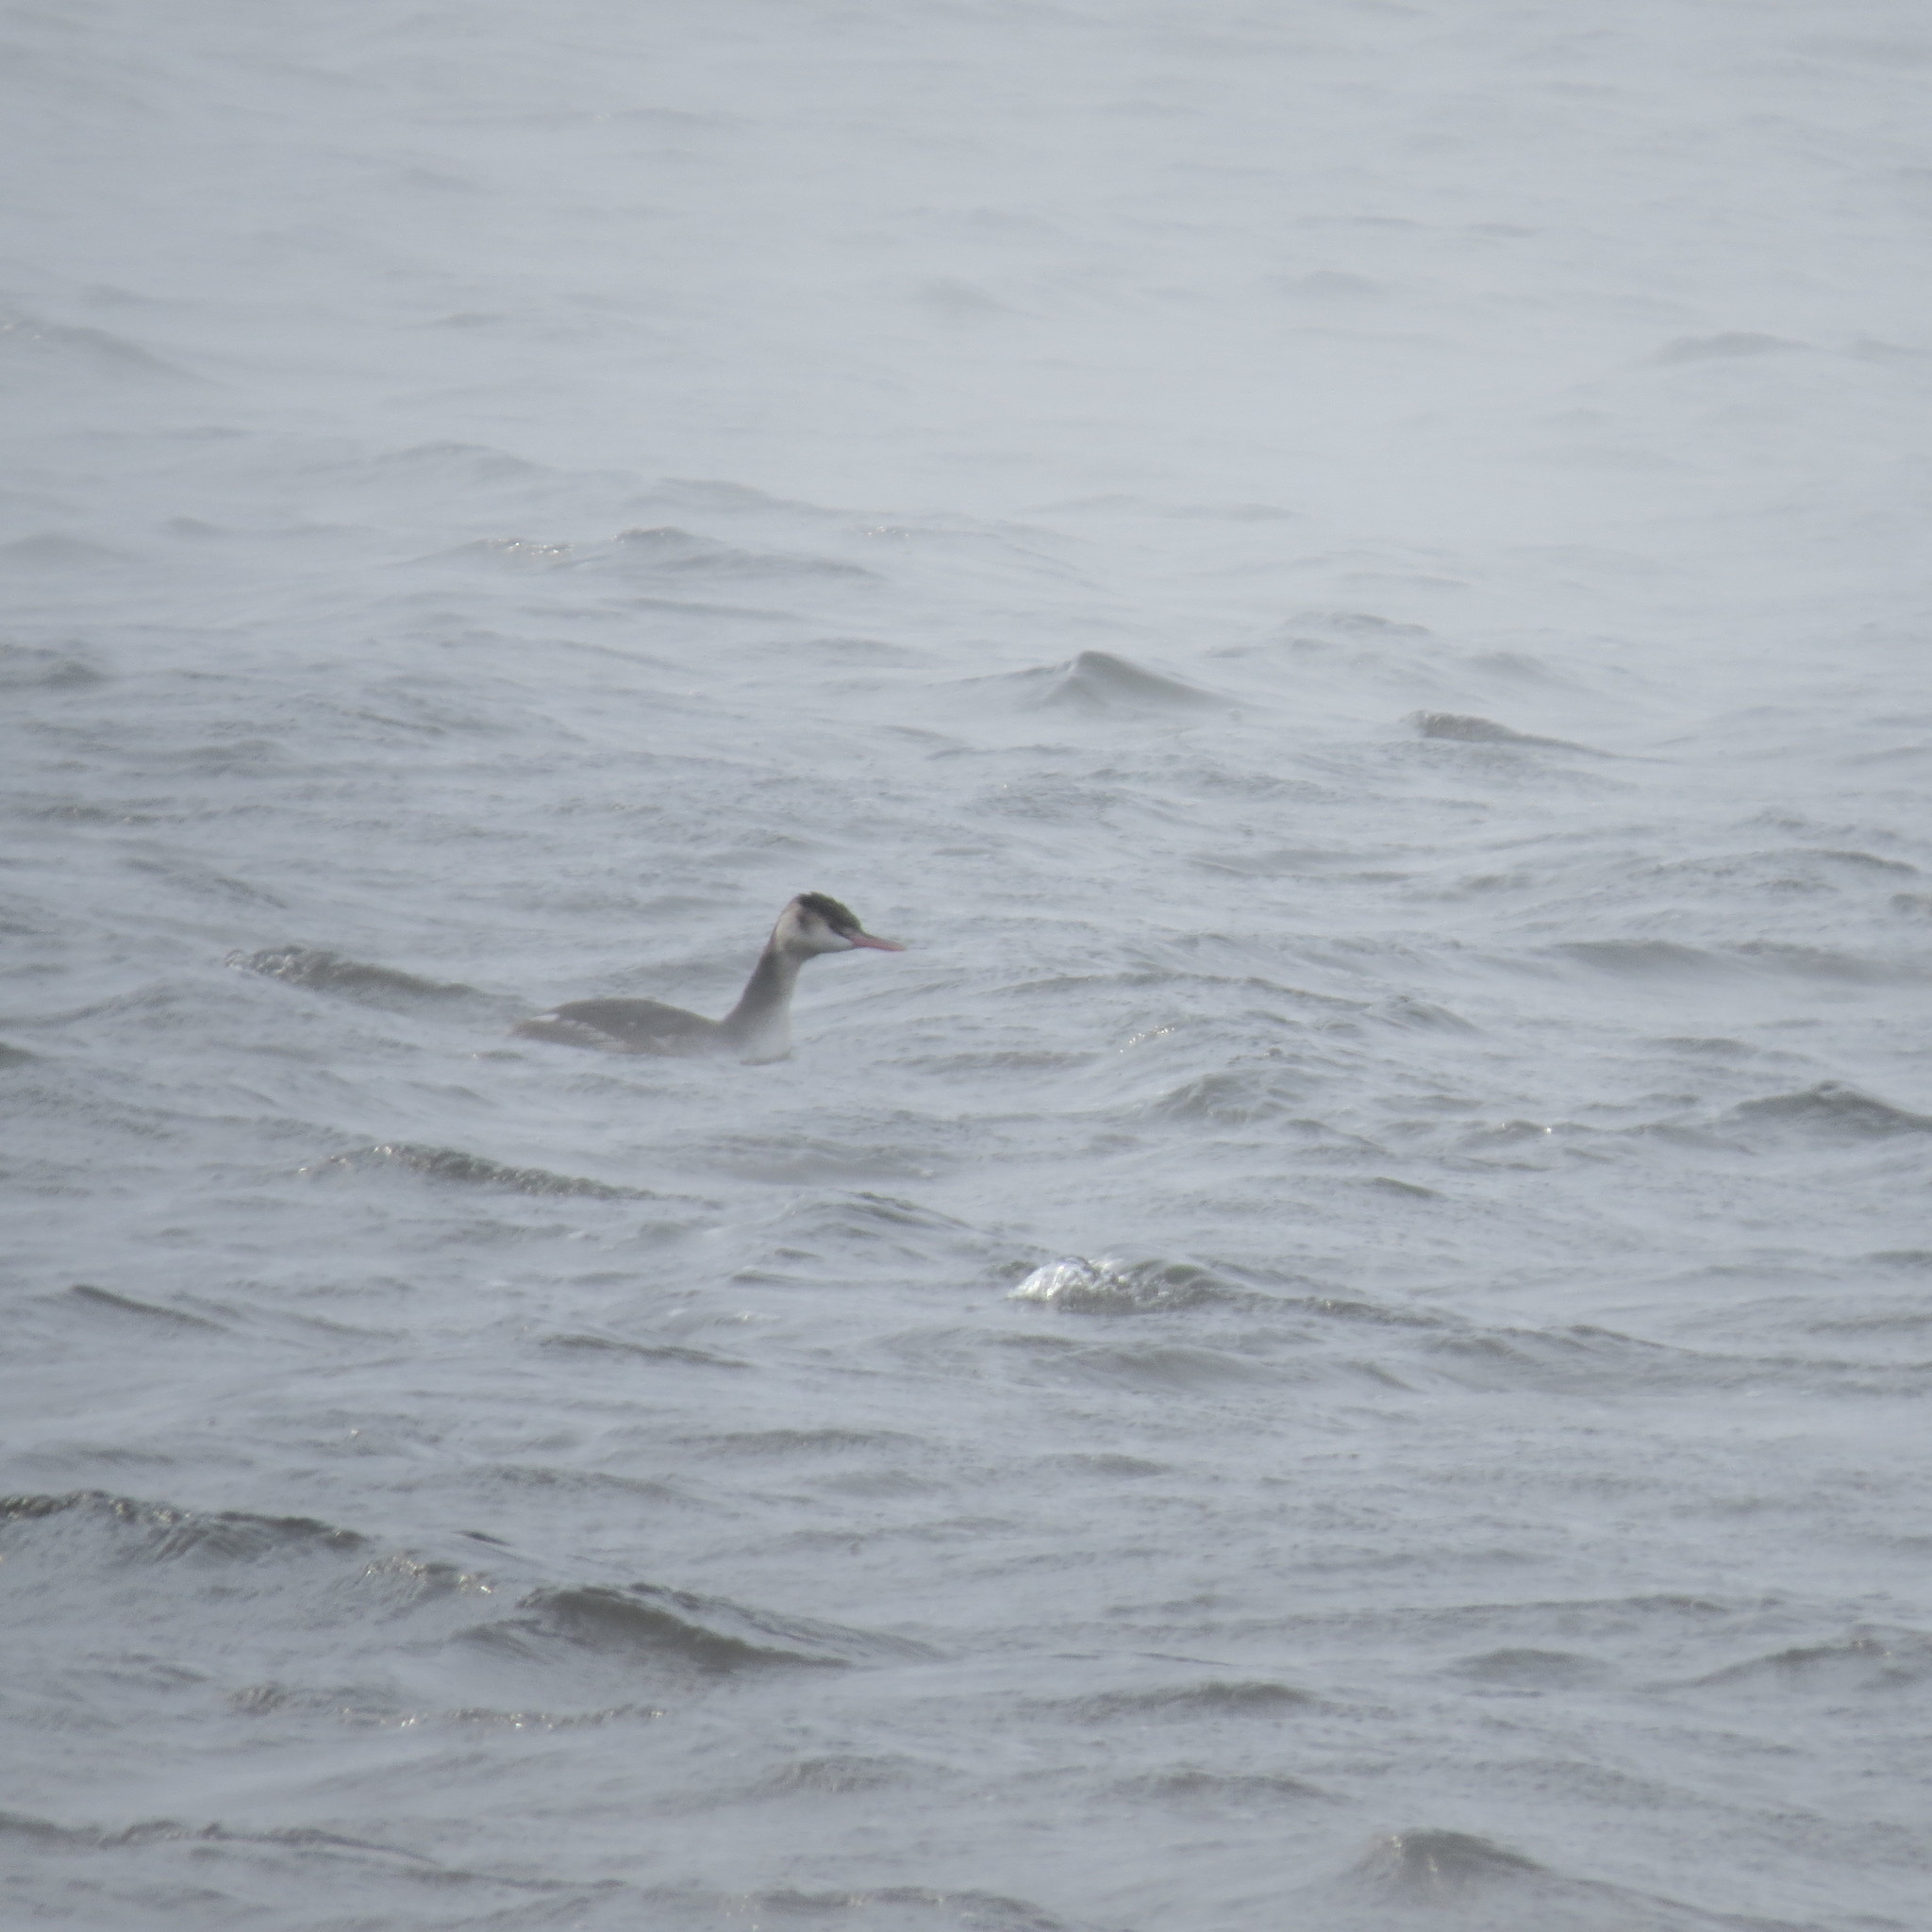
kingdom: Animalia
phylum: Chordata
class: Aves
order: Podicipediformes
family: Podicipedidae
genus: Podiceps
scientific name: Podiceps cristatus
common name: Great crested grebe
